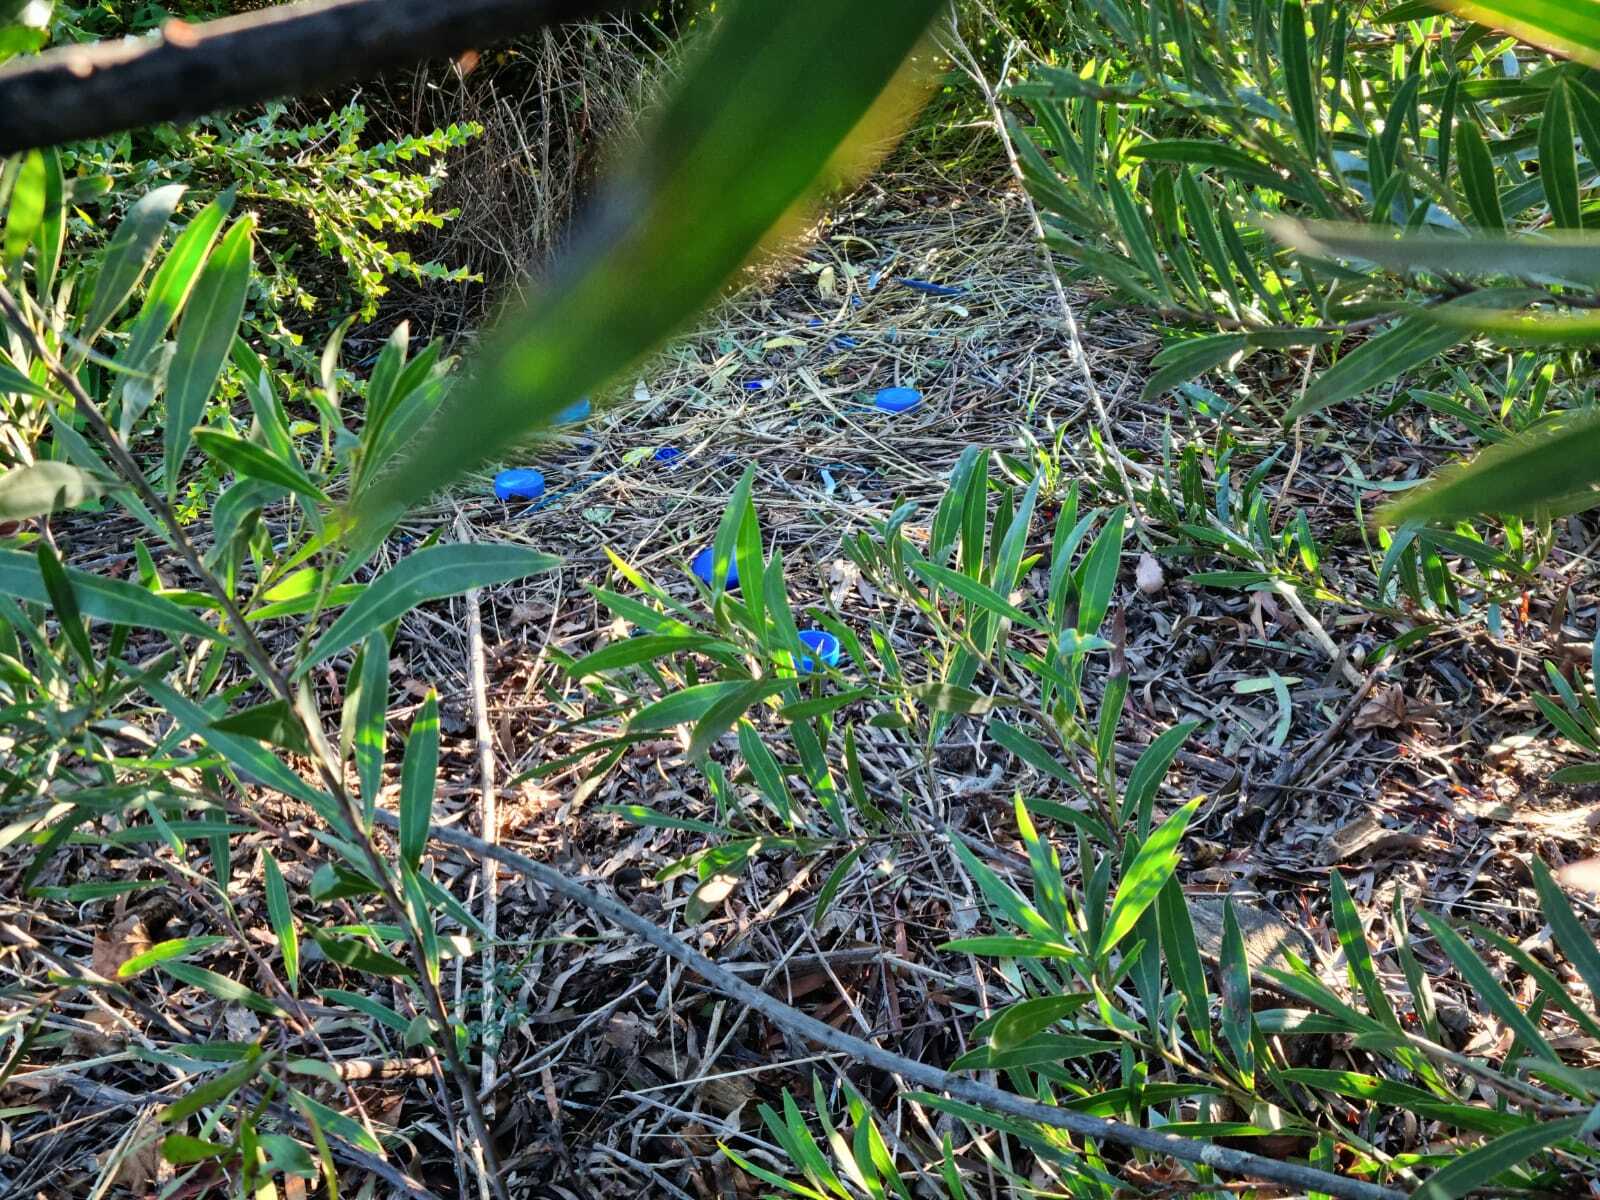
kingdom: Animalia
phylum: Chordata
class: Aves
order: Passeriformes
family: Ptilonorhynchidae
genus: Ptilonorhynchus
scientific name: Ptilonorhynchus violaceus
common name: Satin bowerbird
